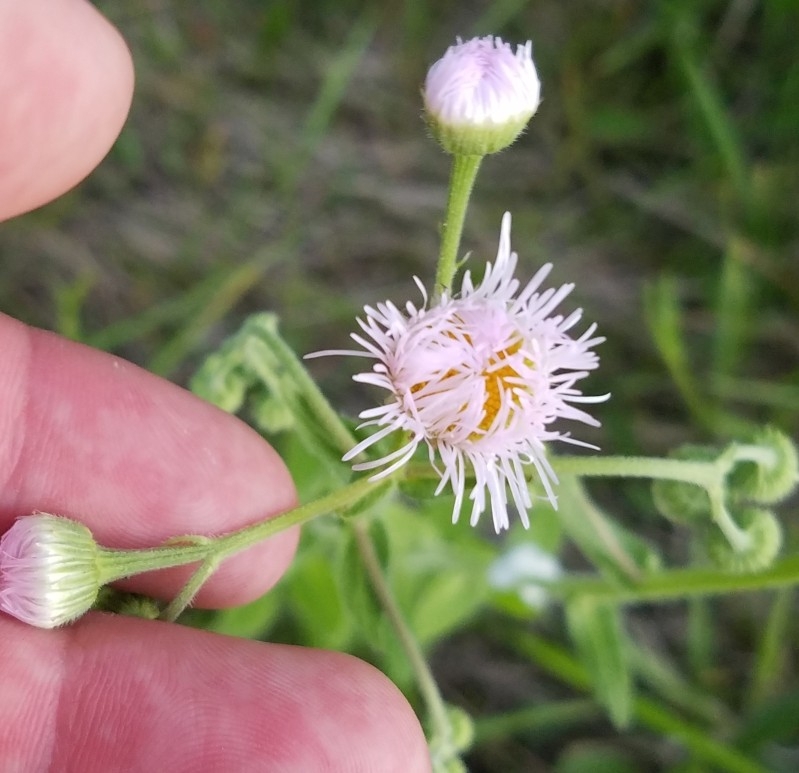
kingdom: Plantae
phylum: Tracheophyta
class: Magnoliopsida
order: Asterales
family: Asteraceae
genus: Erigeron
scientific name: Erigeron philadelphicus
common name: Robin's-plantain
